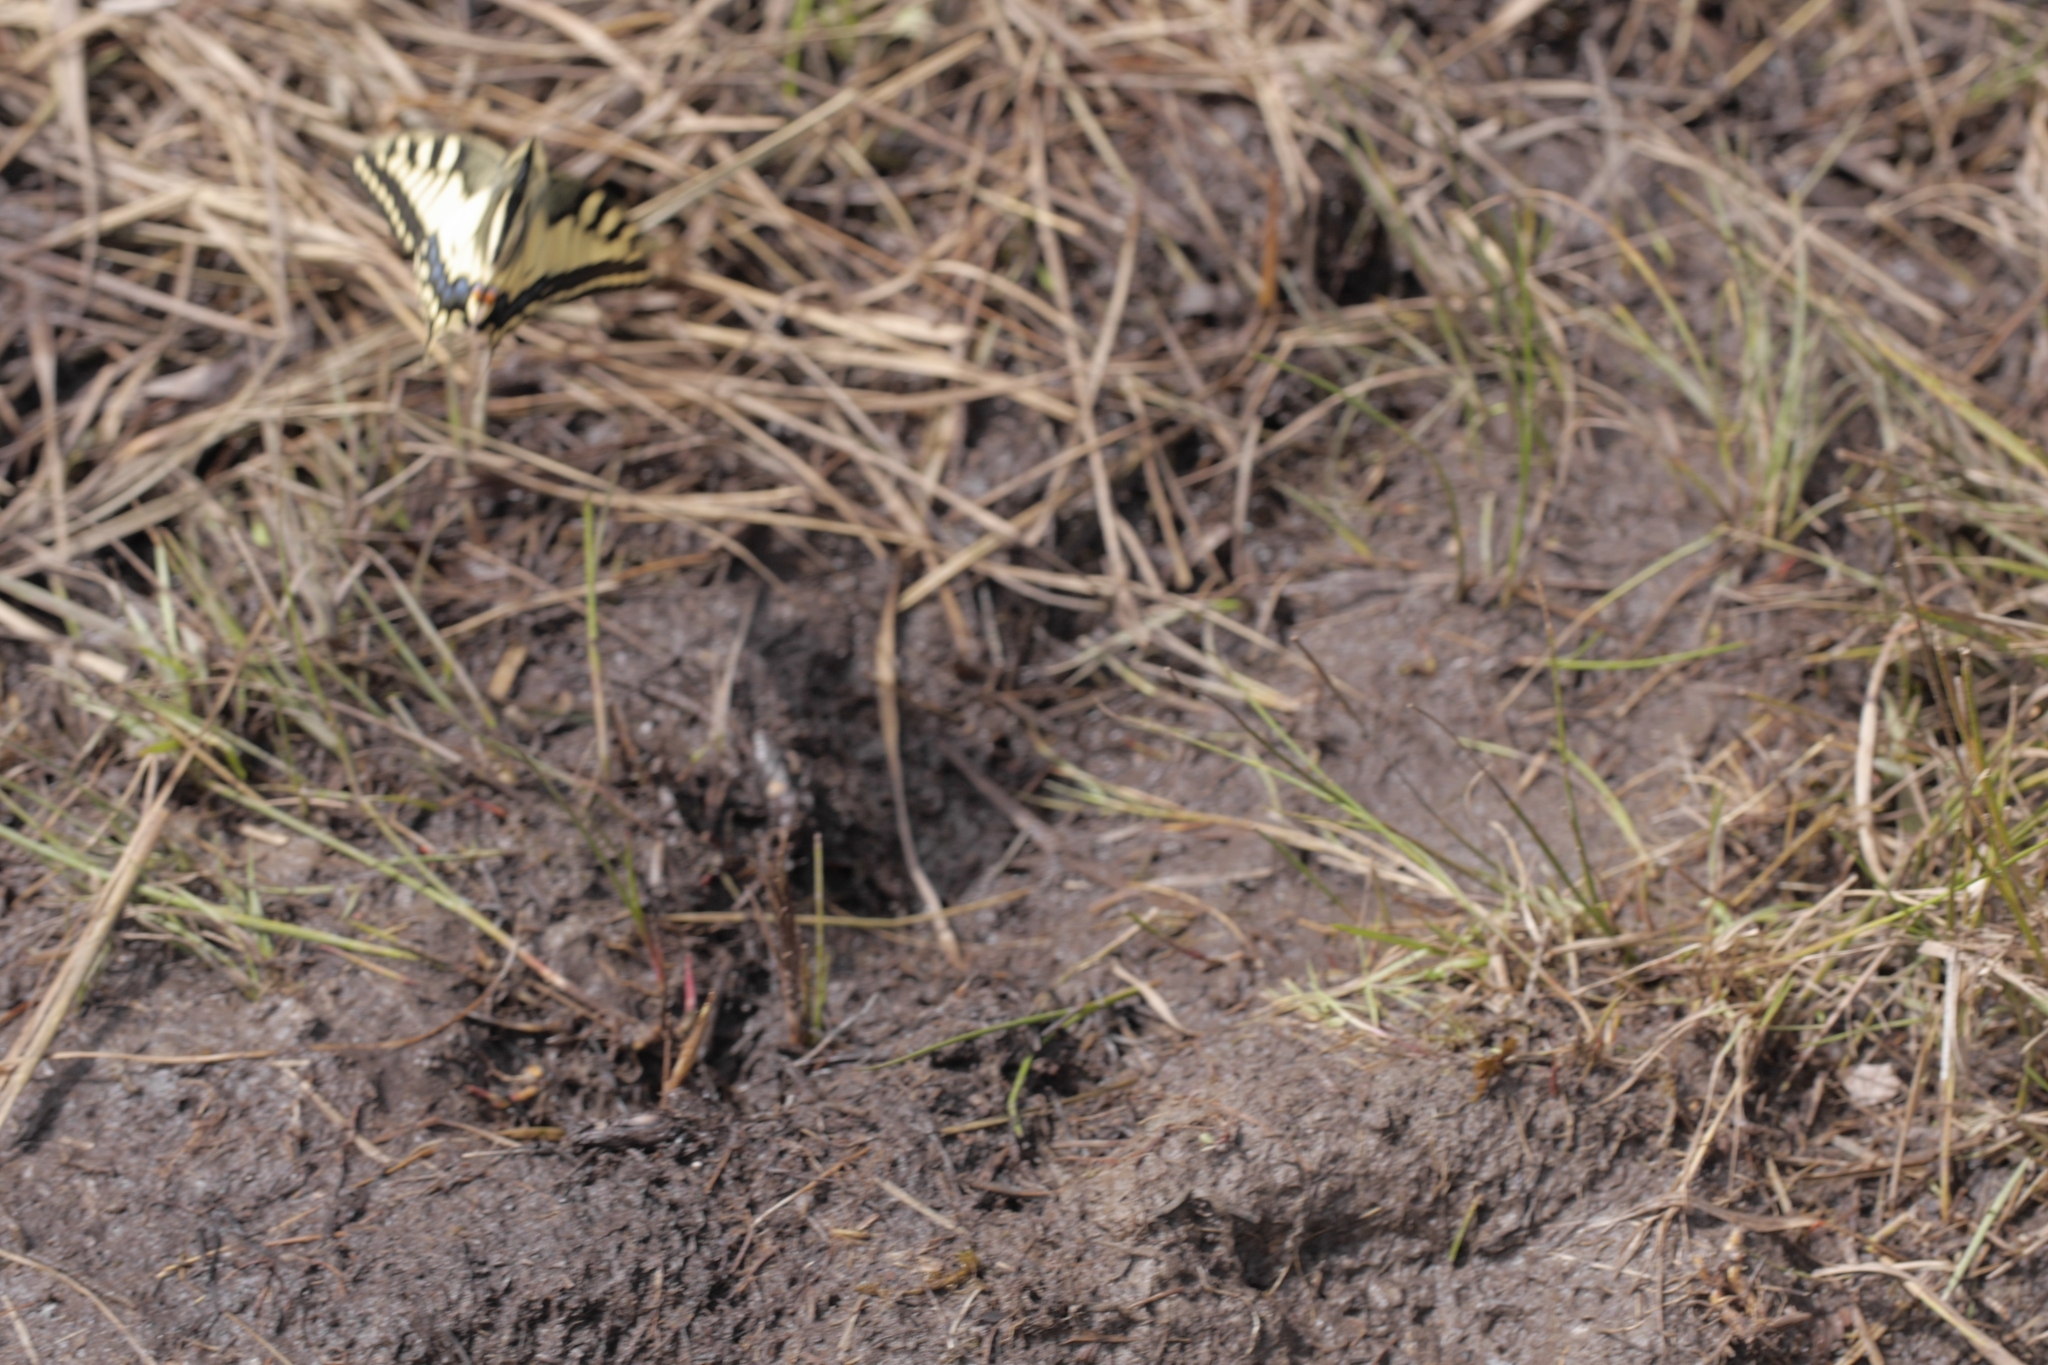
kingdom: Animalia
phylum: Arthropoda
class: Insecta
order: Lepidoptera
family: Papilionidae
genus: Papilio
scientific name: Papilio machaon
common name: Swallowtail
